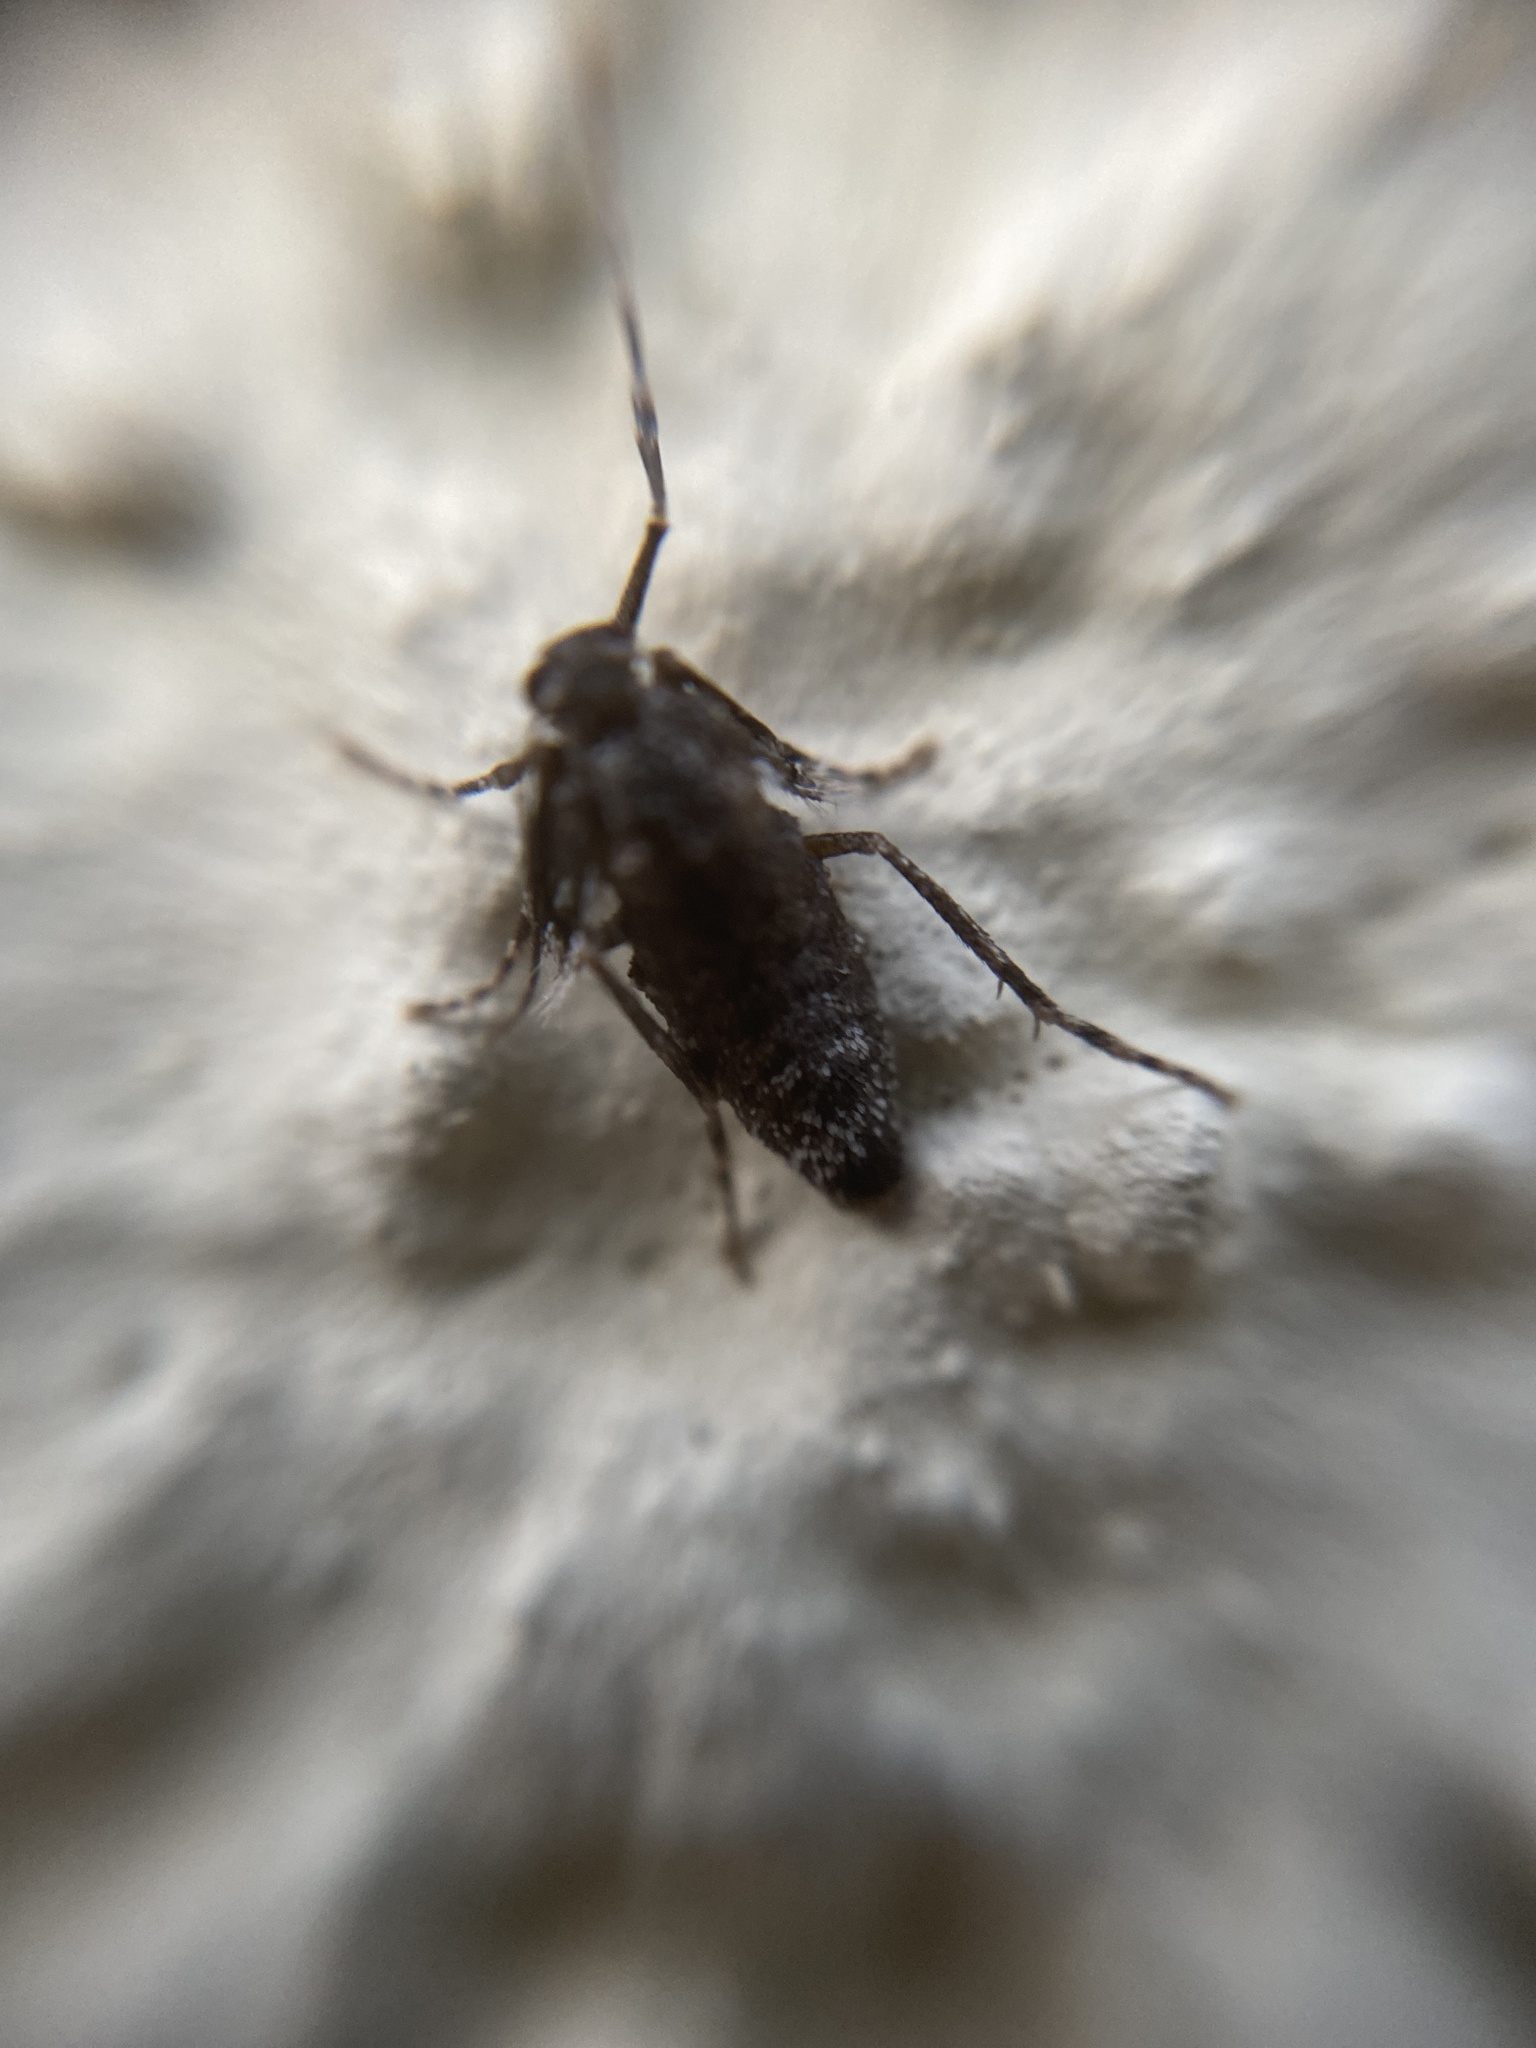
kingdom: Animalia
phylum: Arthropoda
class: Insecta
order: Lepidoptera
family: Geometridae
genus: Operophtera
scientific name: Operophtera brumata
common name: Winter moth
